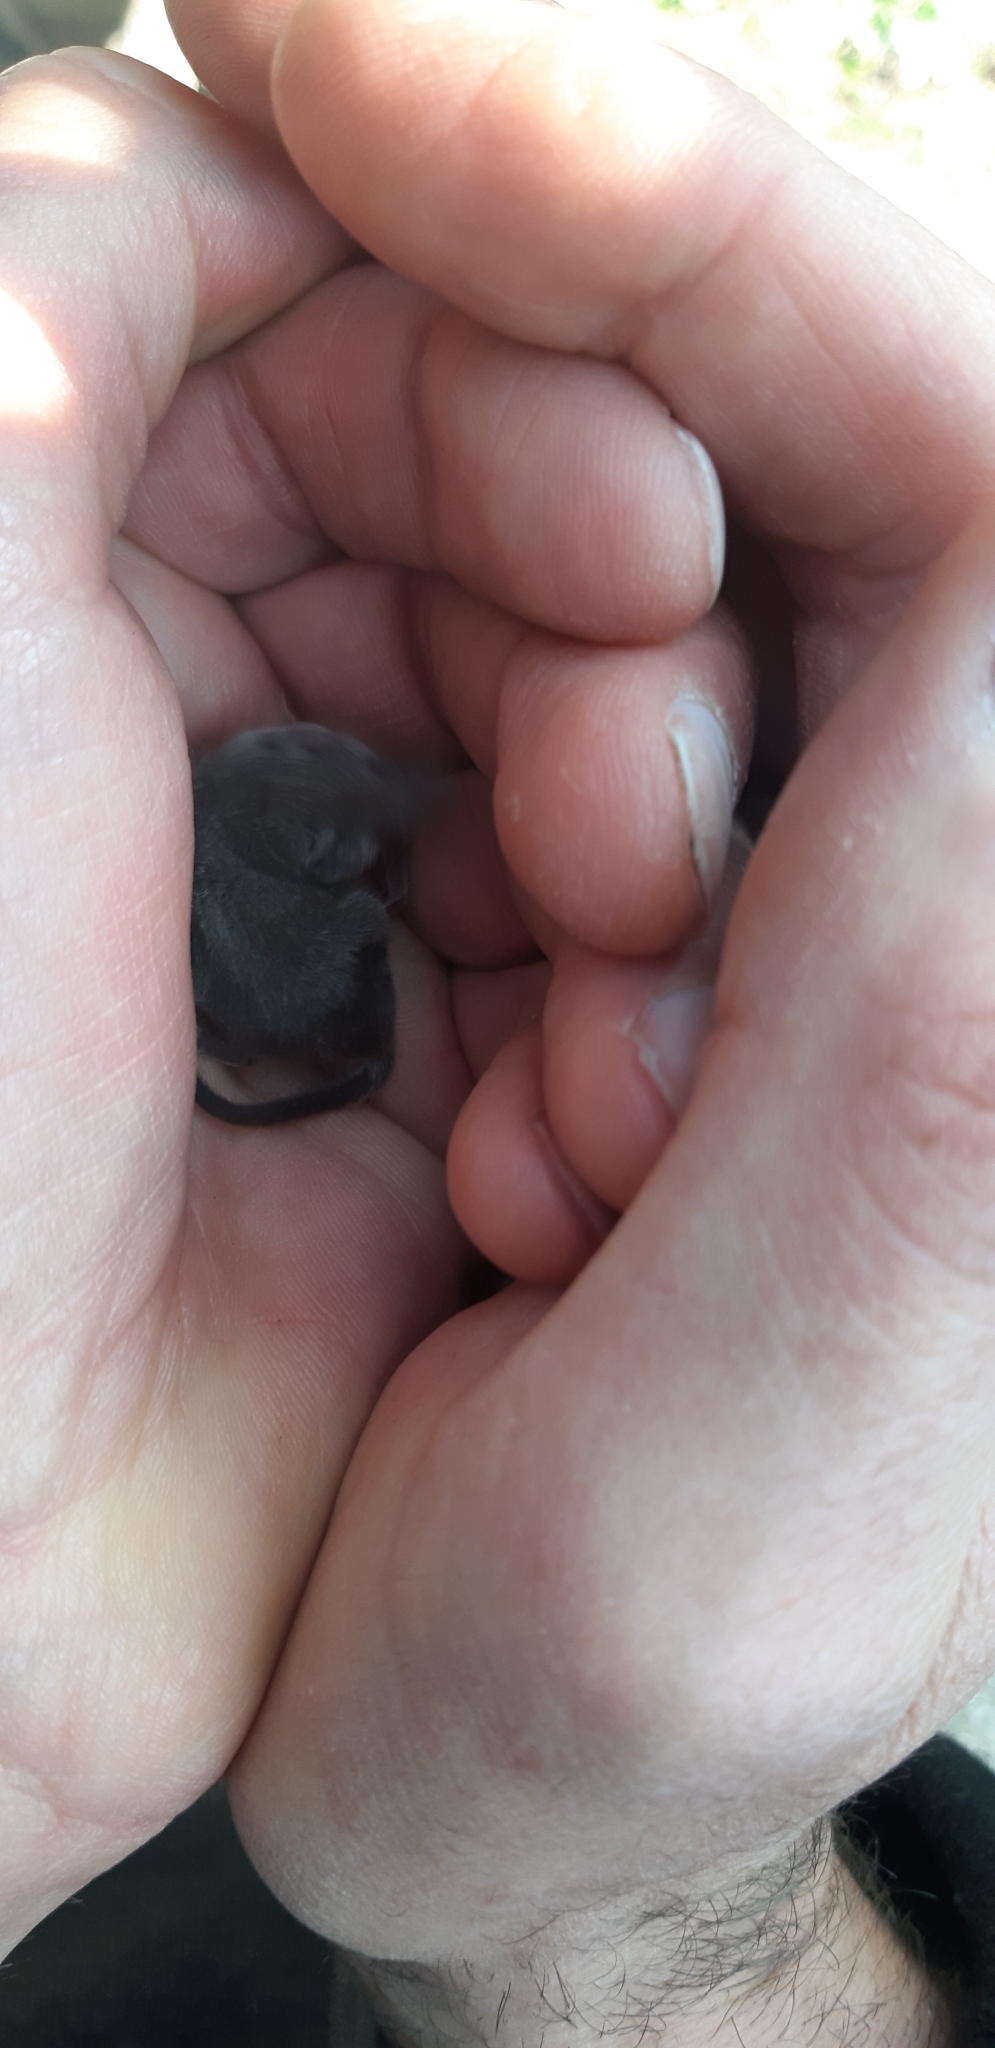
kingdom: Animalia
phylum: Chordata
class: Mammalia
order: Soricomorpha
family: Soricidae
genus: Suncus
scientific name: Suncus etruscus
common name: Etruscan shrew
